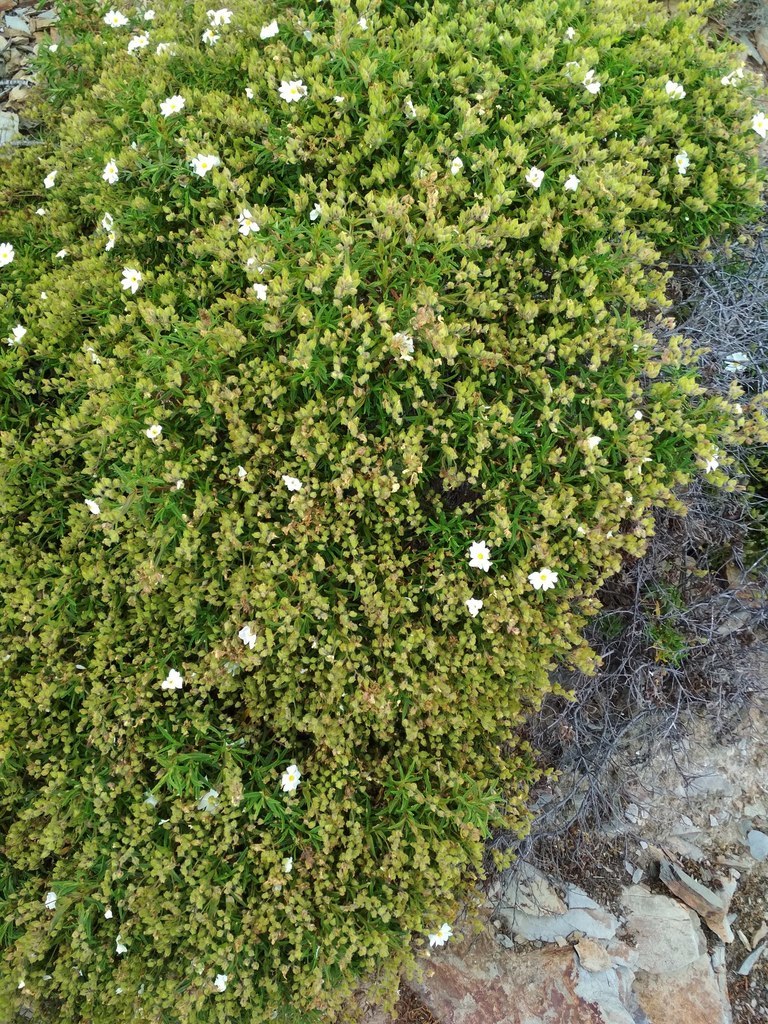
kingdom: Plantae
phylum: Tracheophyta
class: Magnoliopsida
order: Malvales
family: Cistaceae
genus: Cistus
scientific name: Cistus monspeliensis
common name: Montpelier cistus
